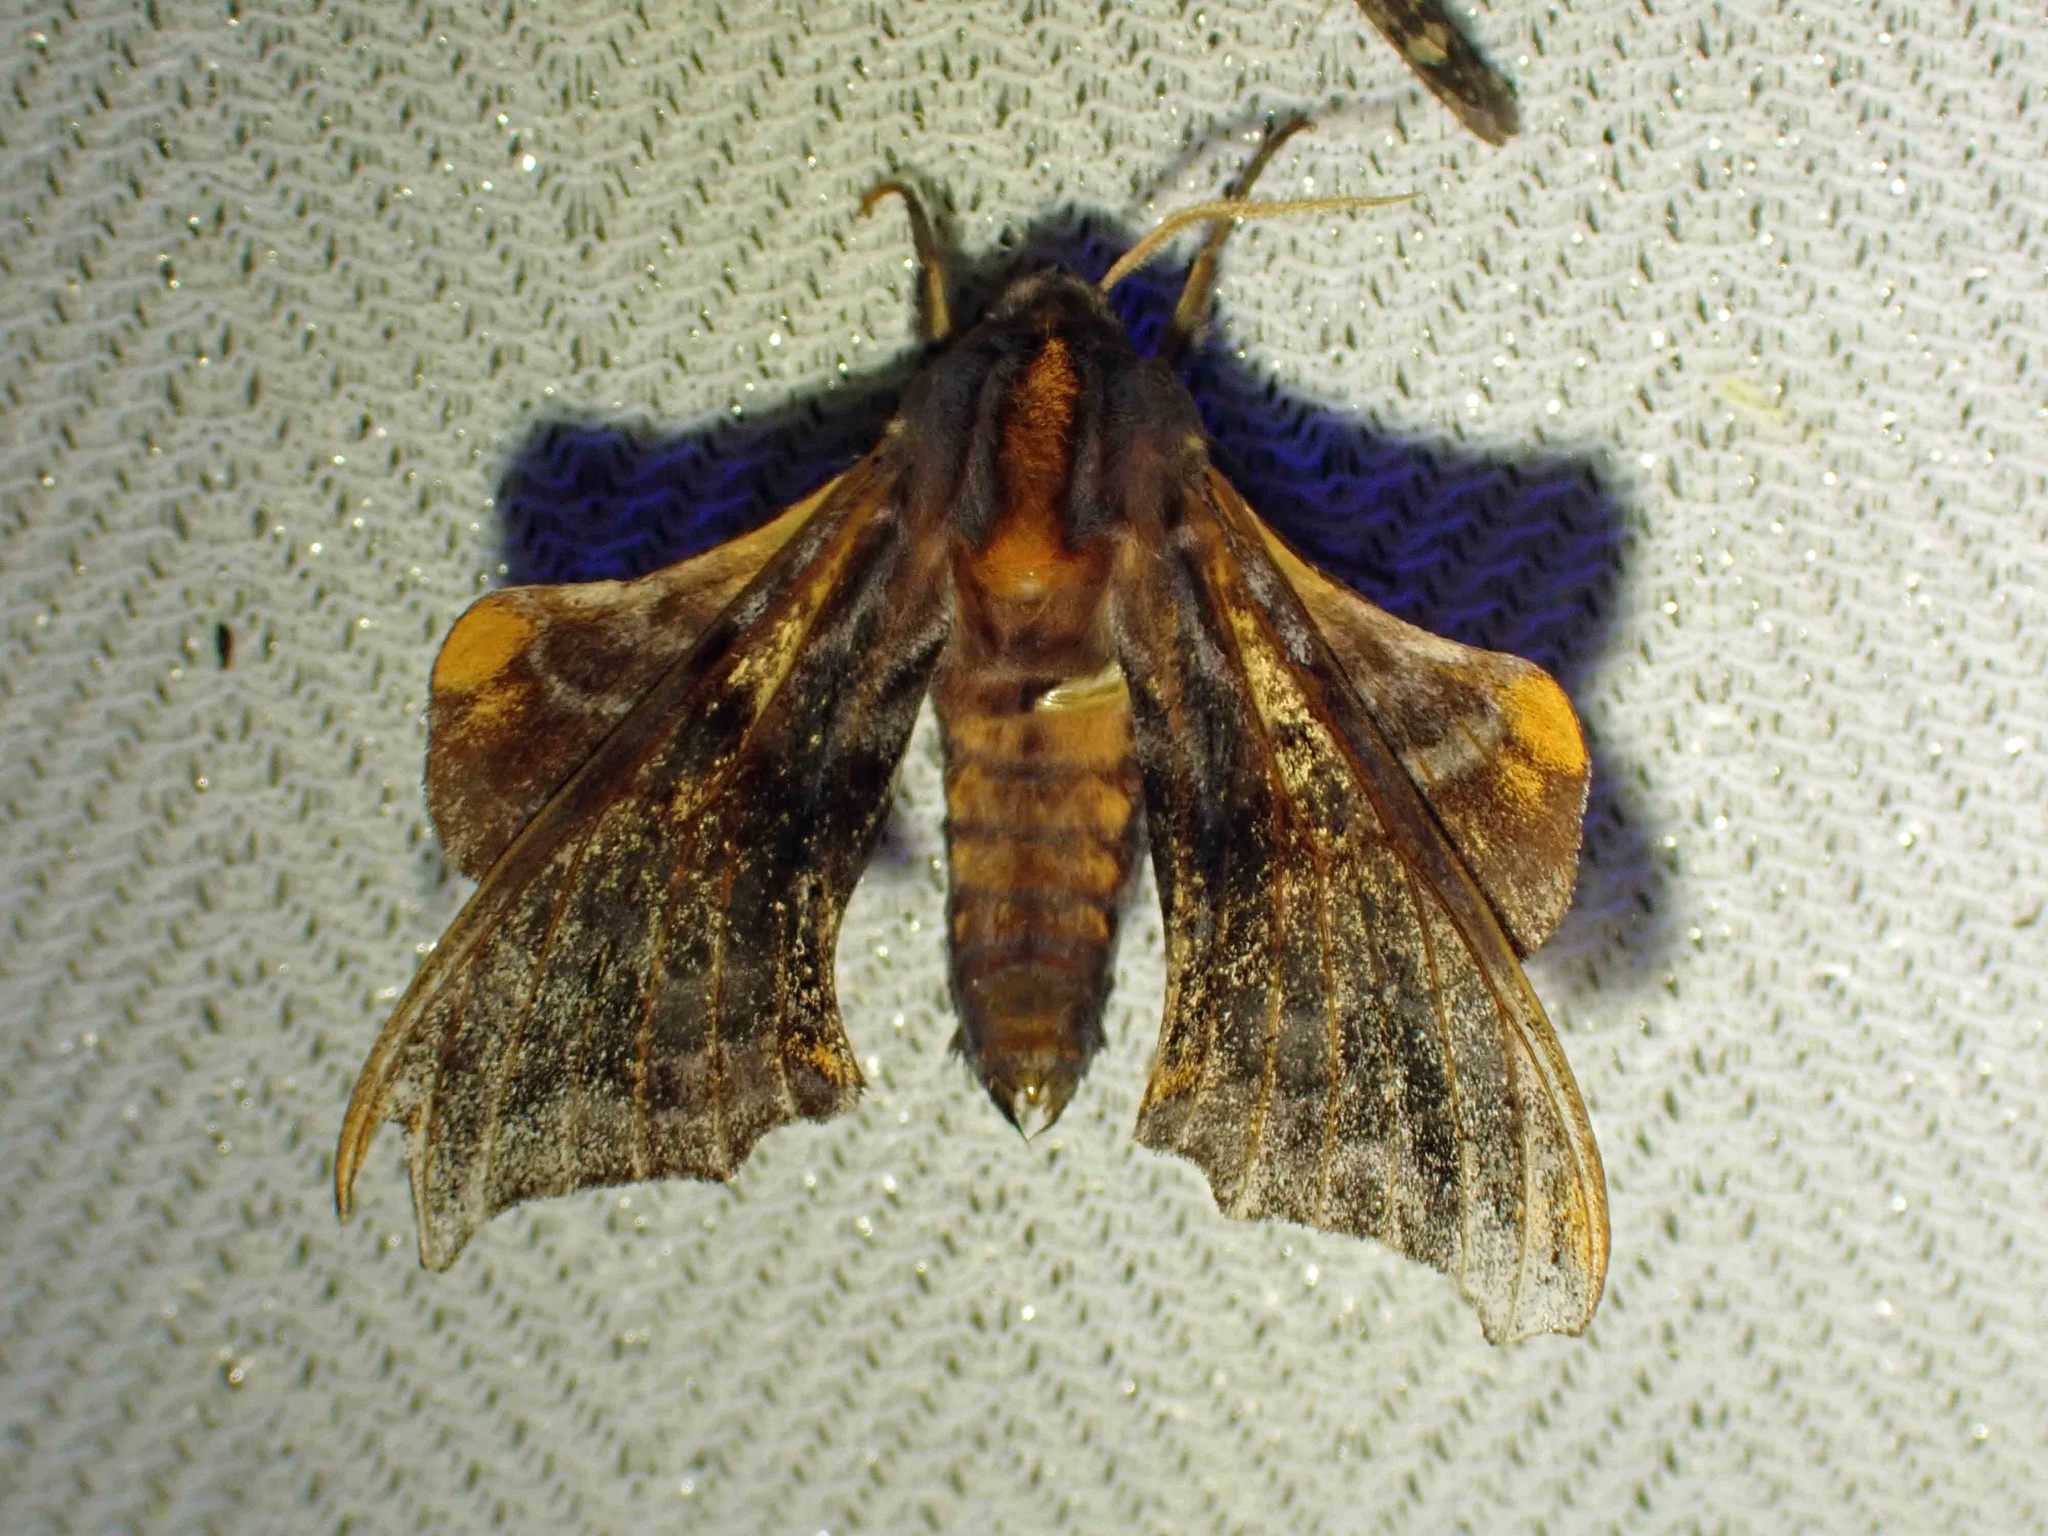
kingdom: Animalia
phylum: Arthropoda
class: Insecta
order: Lepidoptera
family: Sphingidae
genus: Paonias
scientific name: Paonias myops
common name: Small-eyed sphinx
